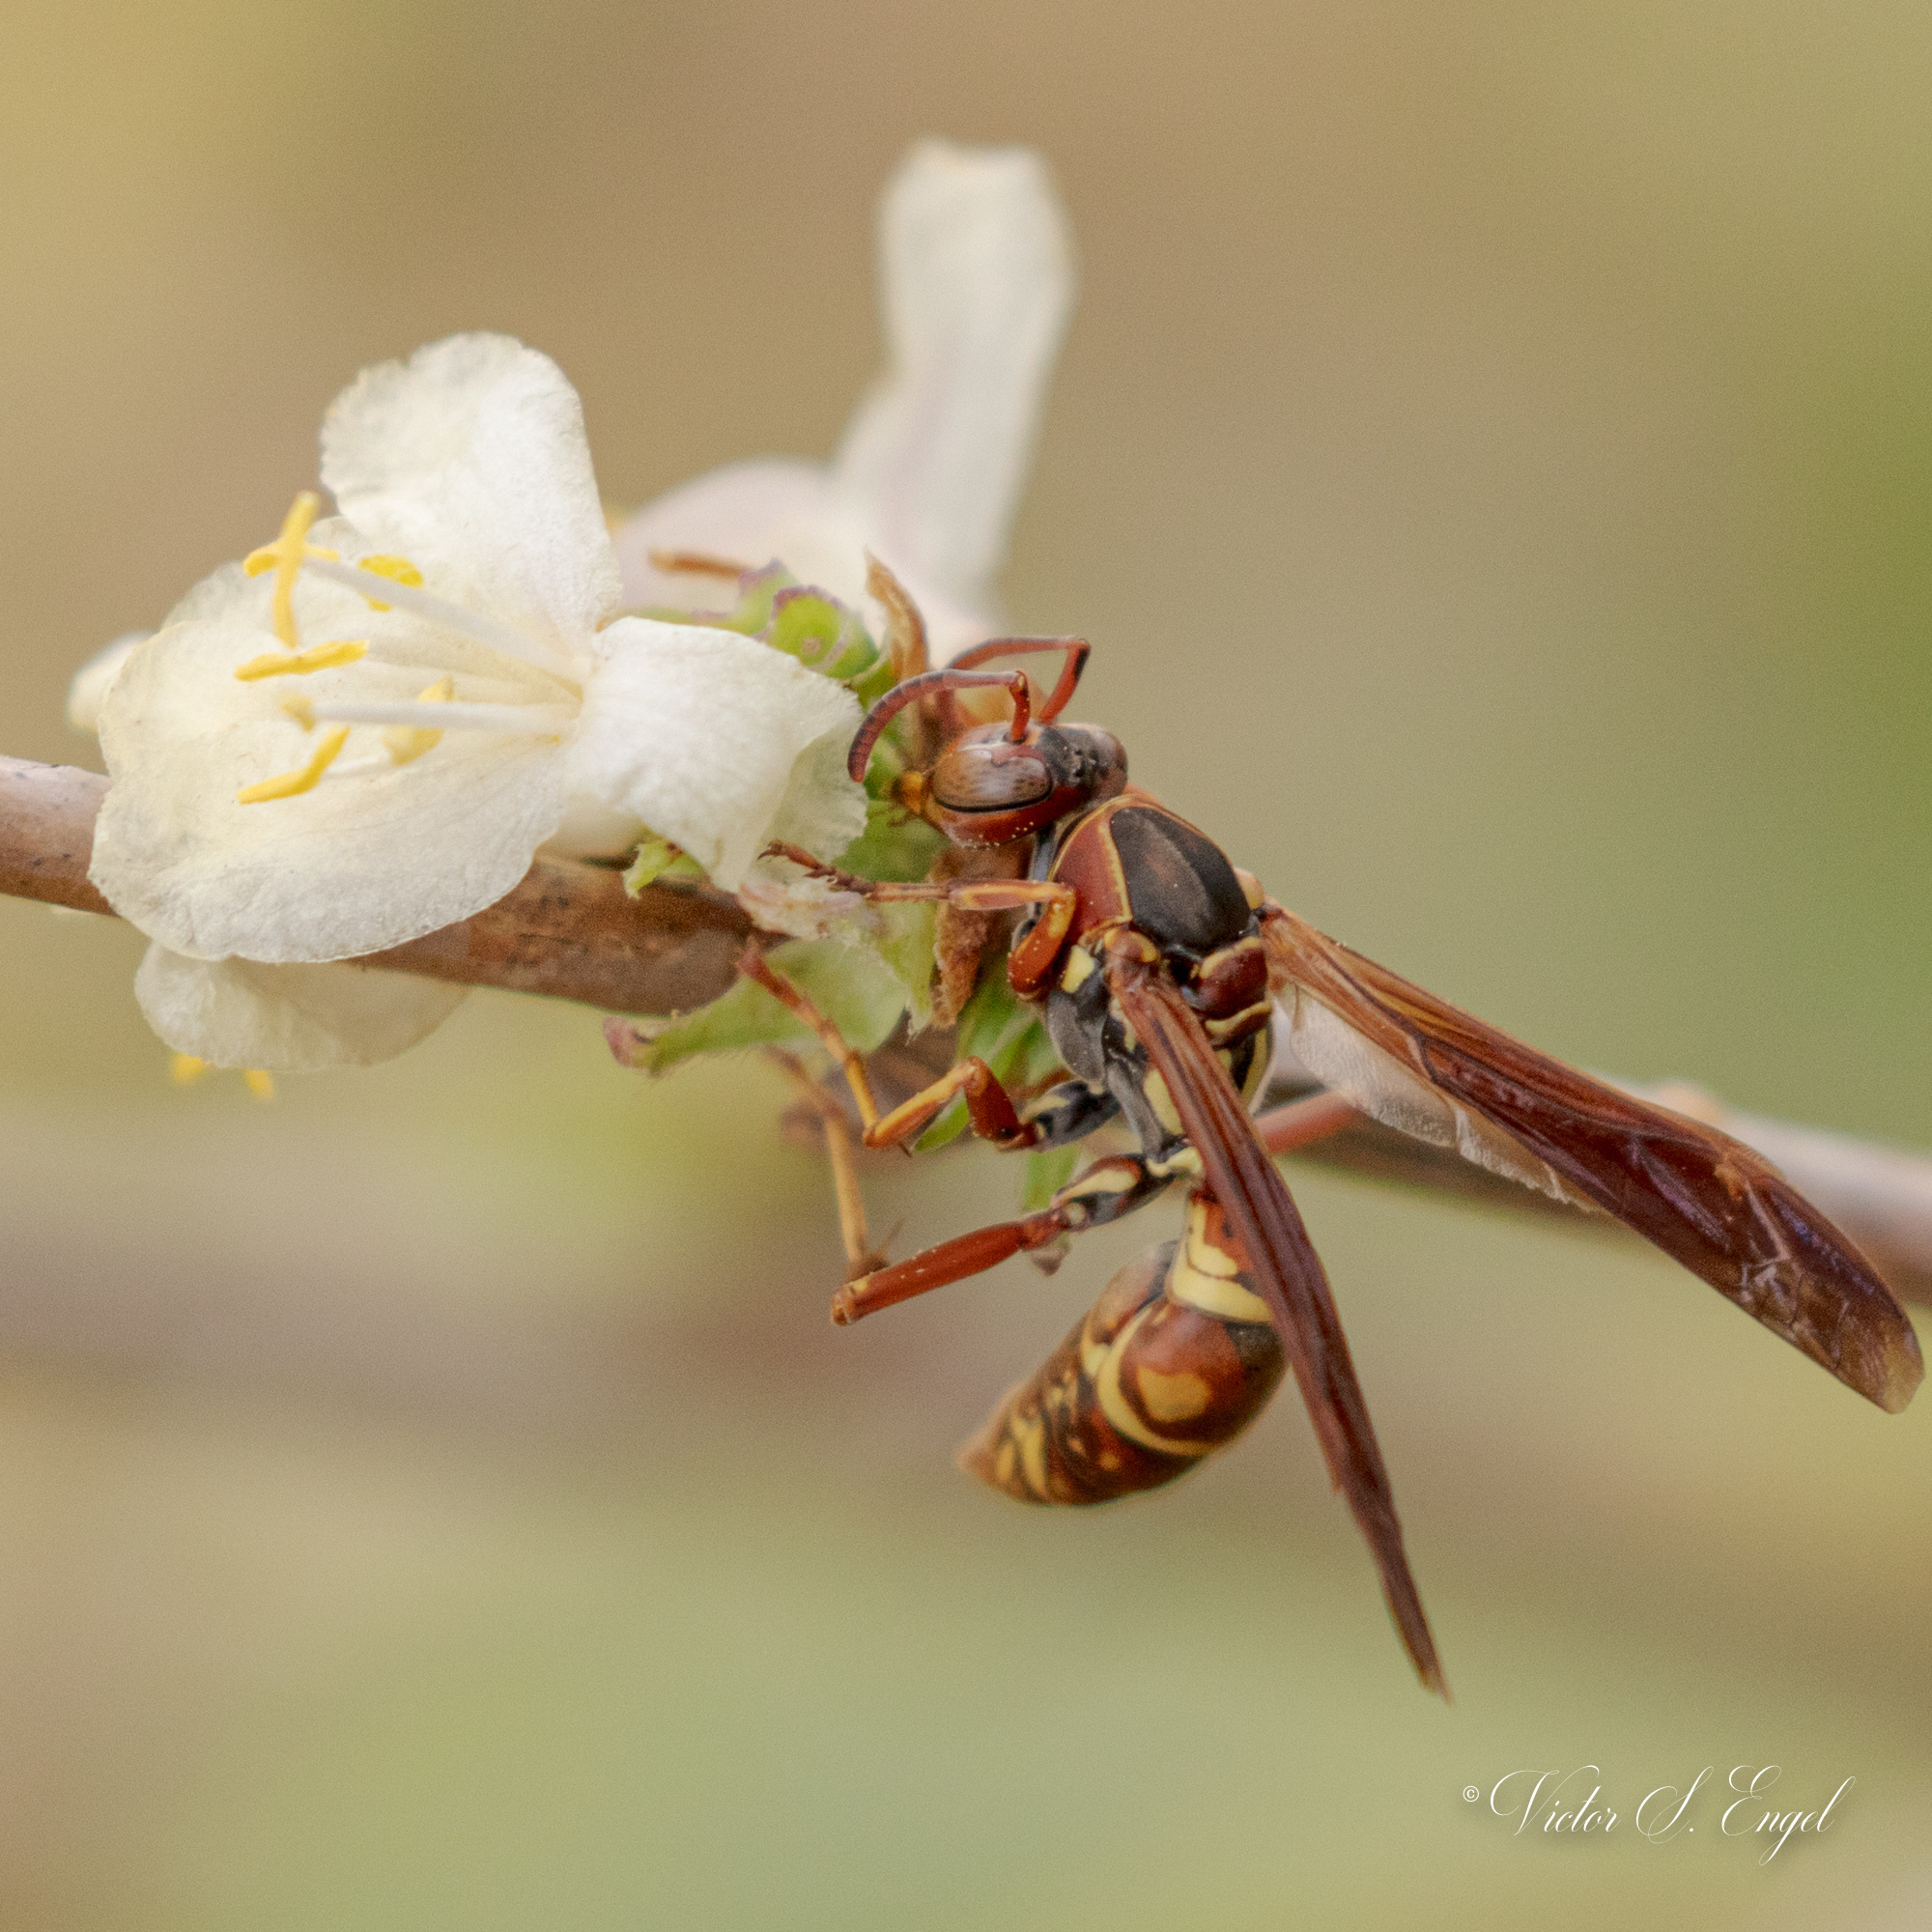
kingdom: Animalia
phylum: Arthropoda
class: Insecta
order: Hymenoptera
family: Eumenidae
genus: Polistes
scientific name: Polistes fuscatus
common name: Dark paper wasp
